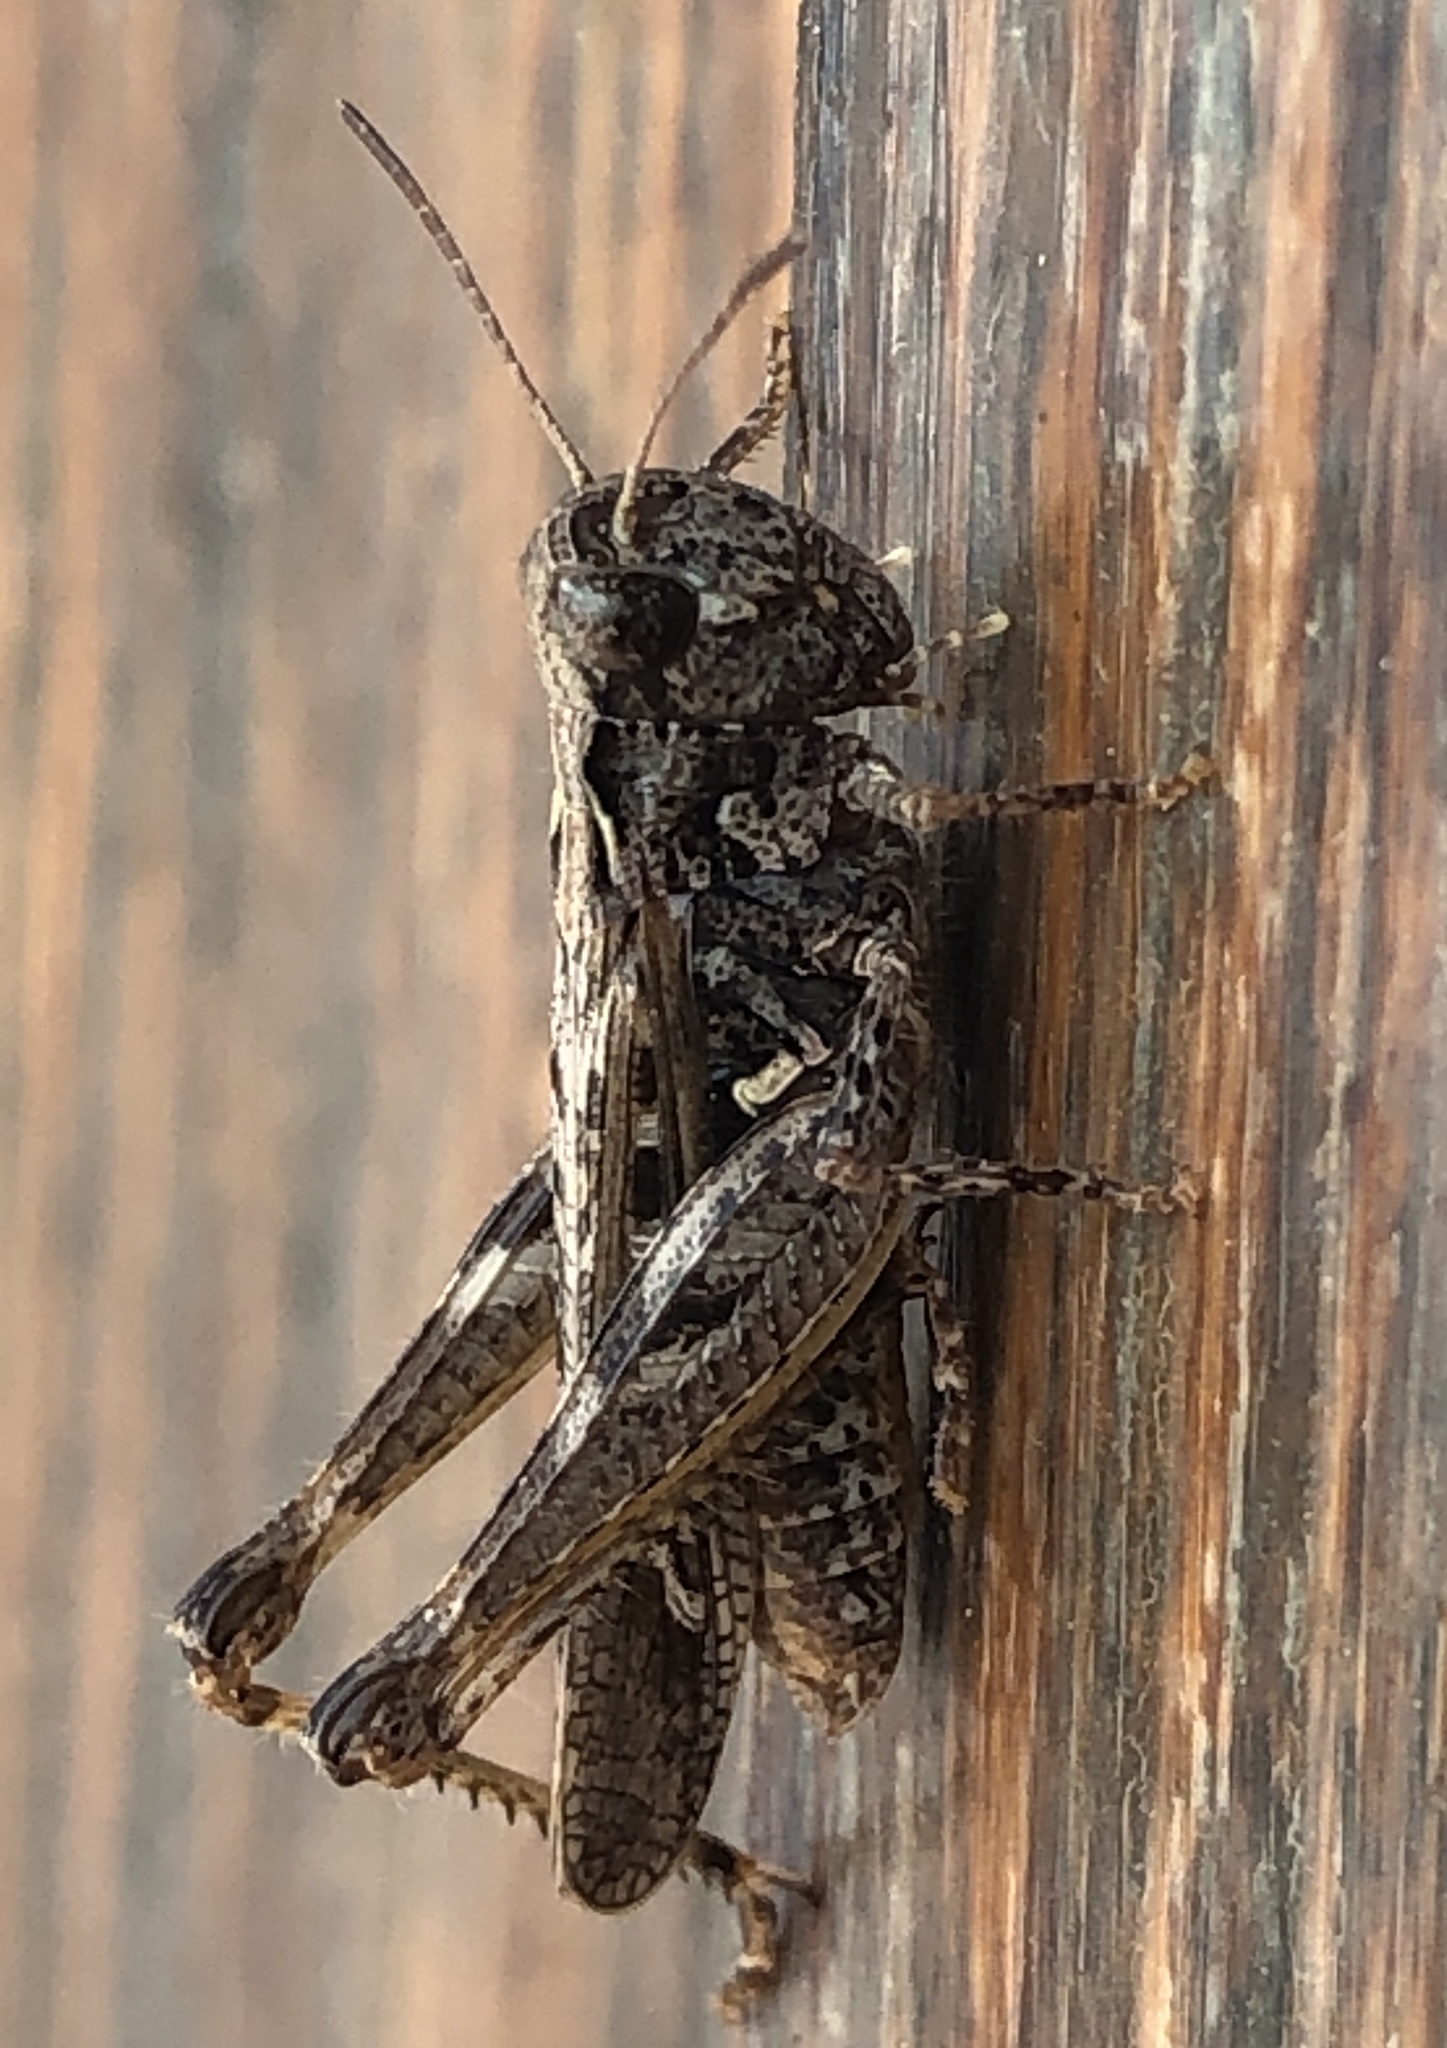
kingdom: Animalia
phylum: Arthropoda
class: Insecta
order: Orthoptera
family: Acrididae
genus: Myrmeleotettix
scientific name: Myrmeleotettix maculatus
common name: Mottled grasshopper
